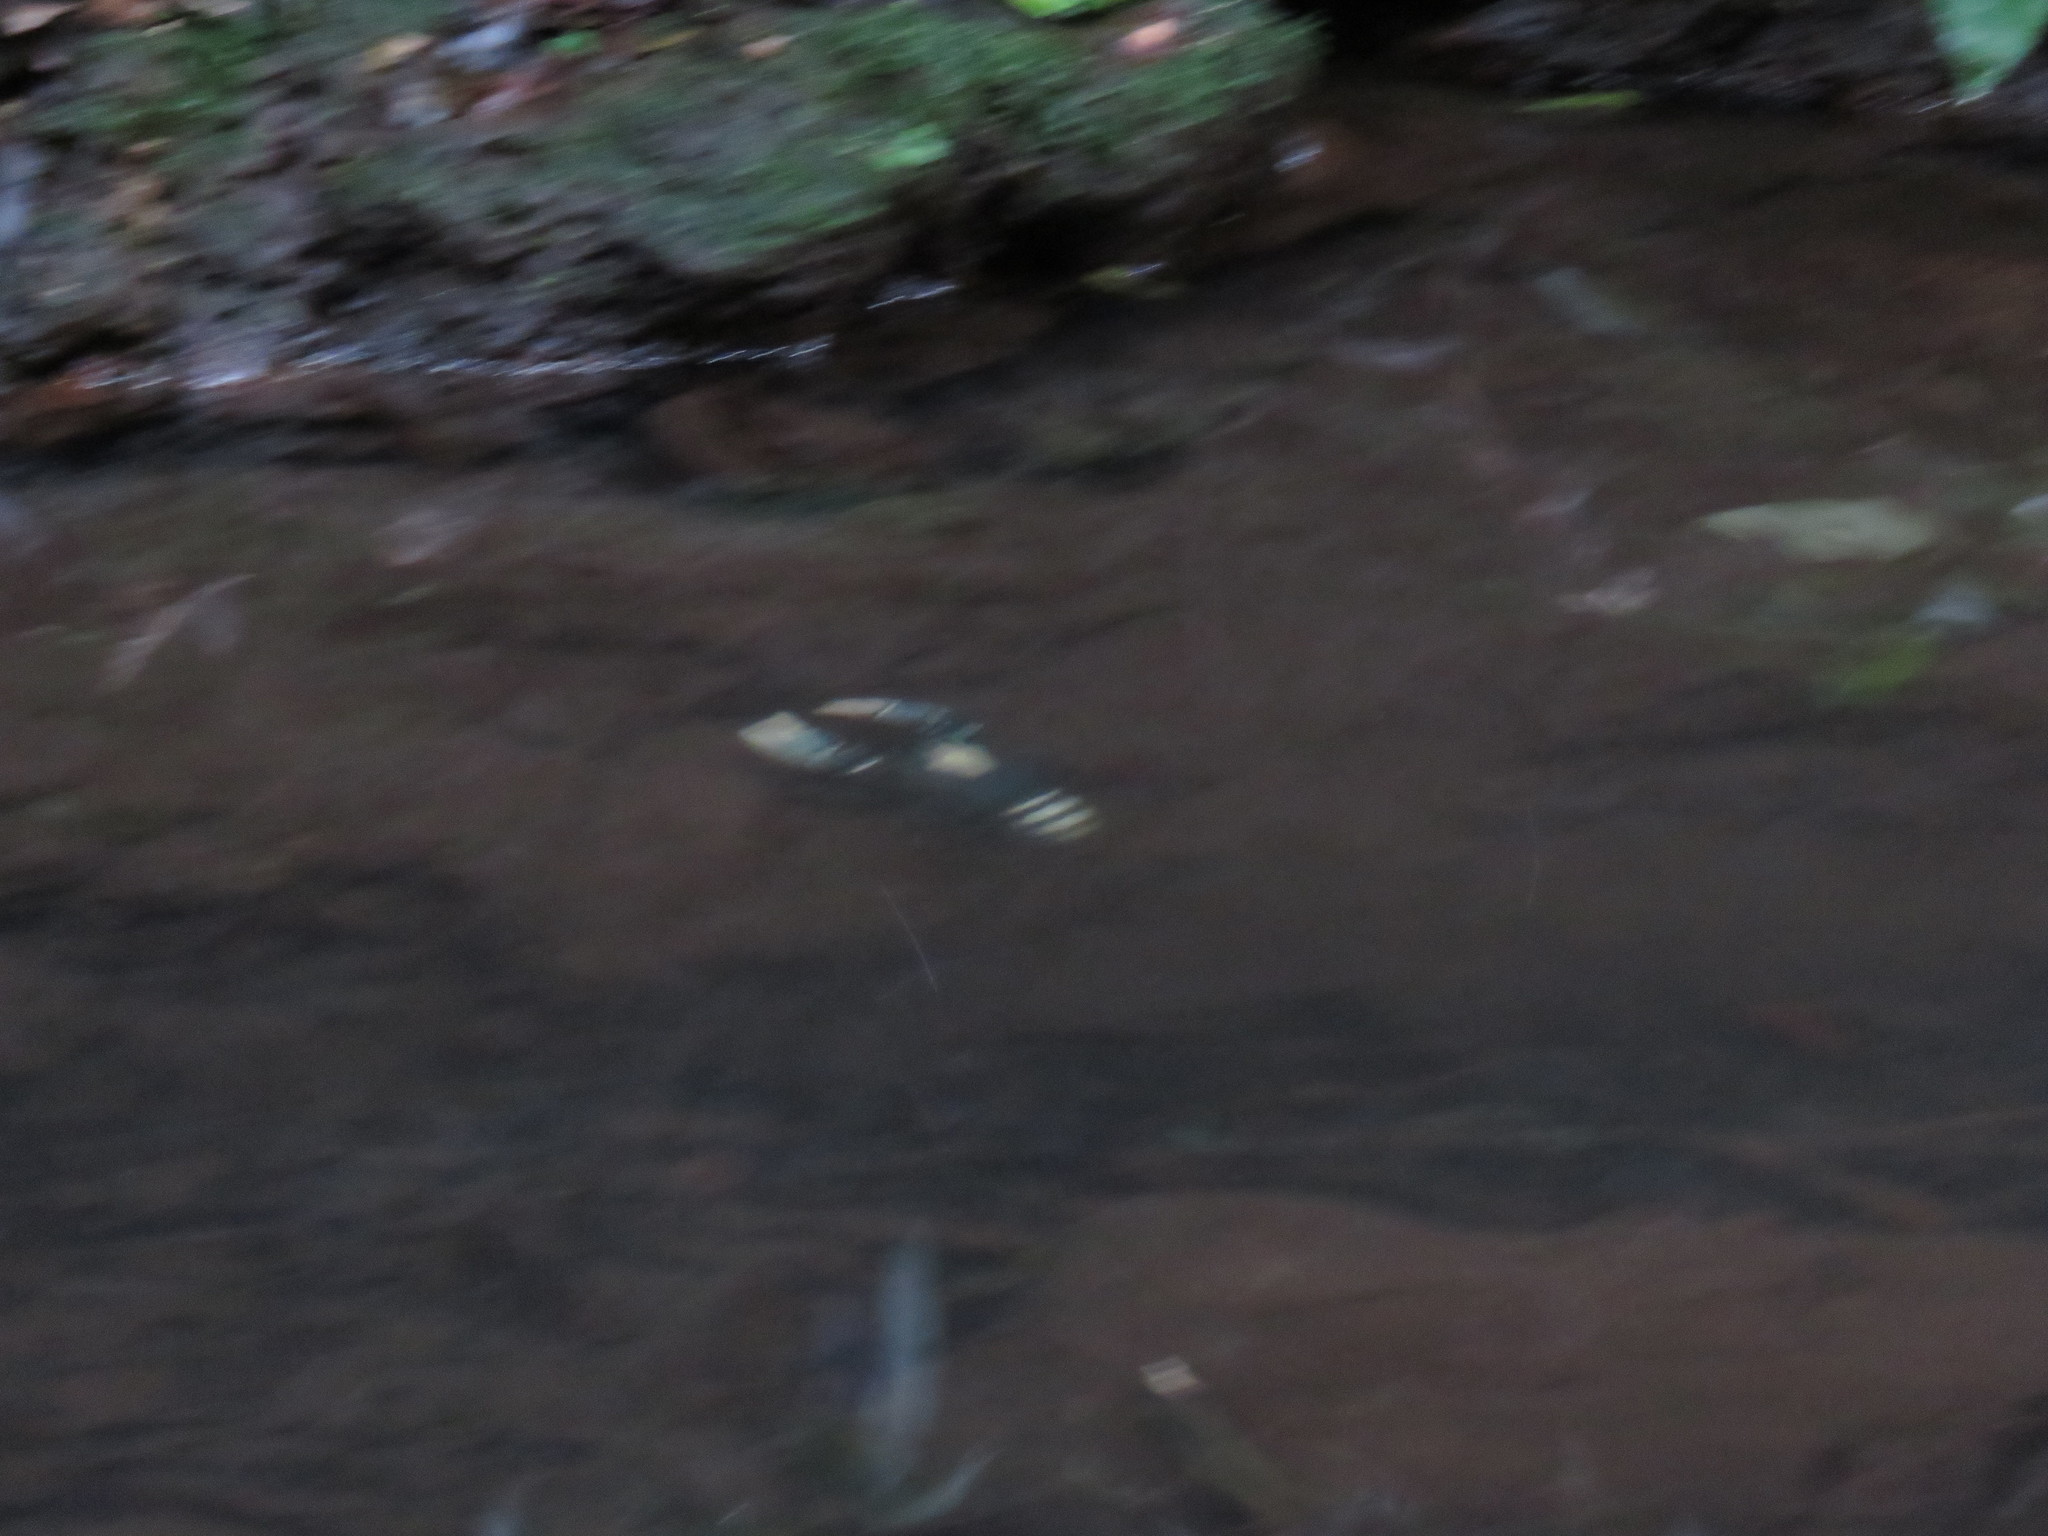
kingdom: Animalia
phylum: Arthropoda
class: Malacostraca
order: Decapoda
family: Parastacidae
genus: Euastacus
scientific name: Euastacus sulcatus
